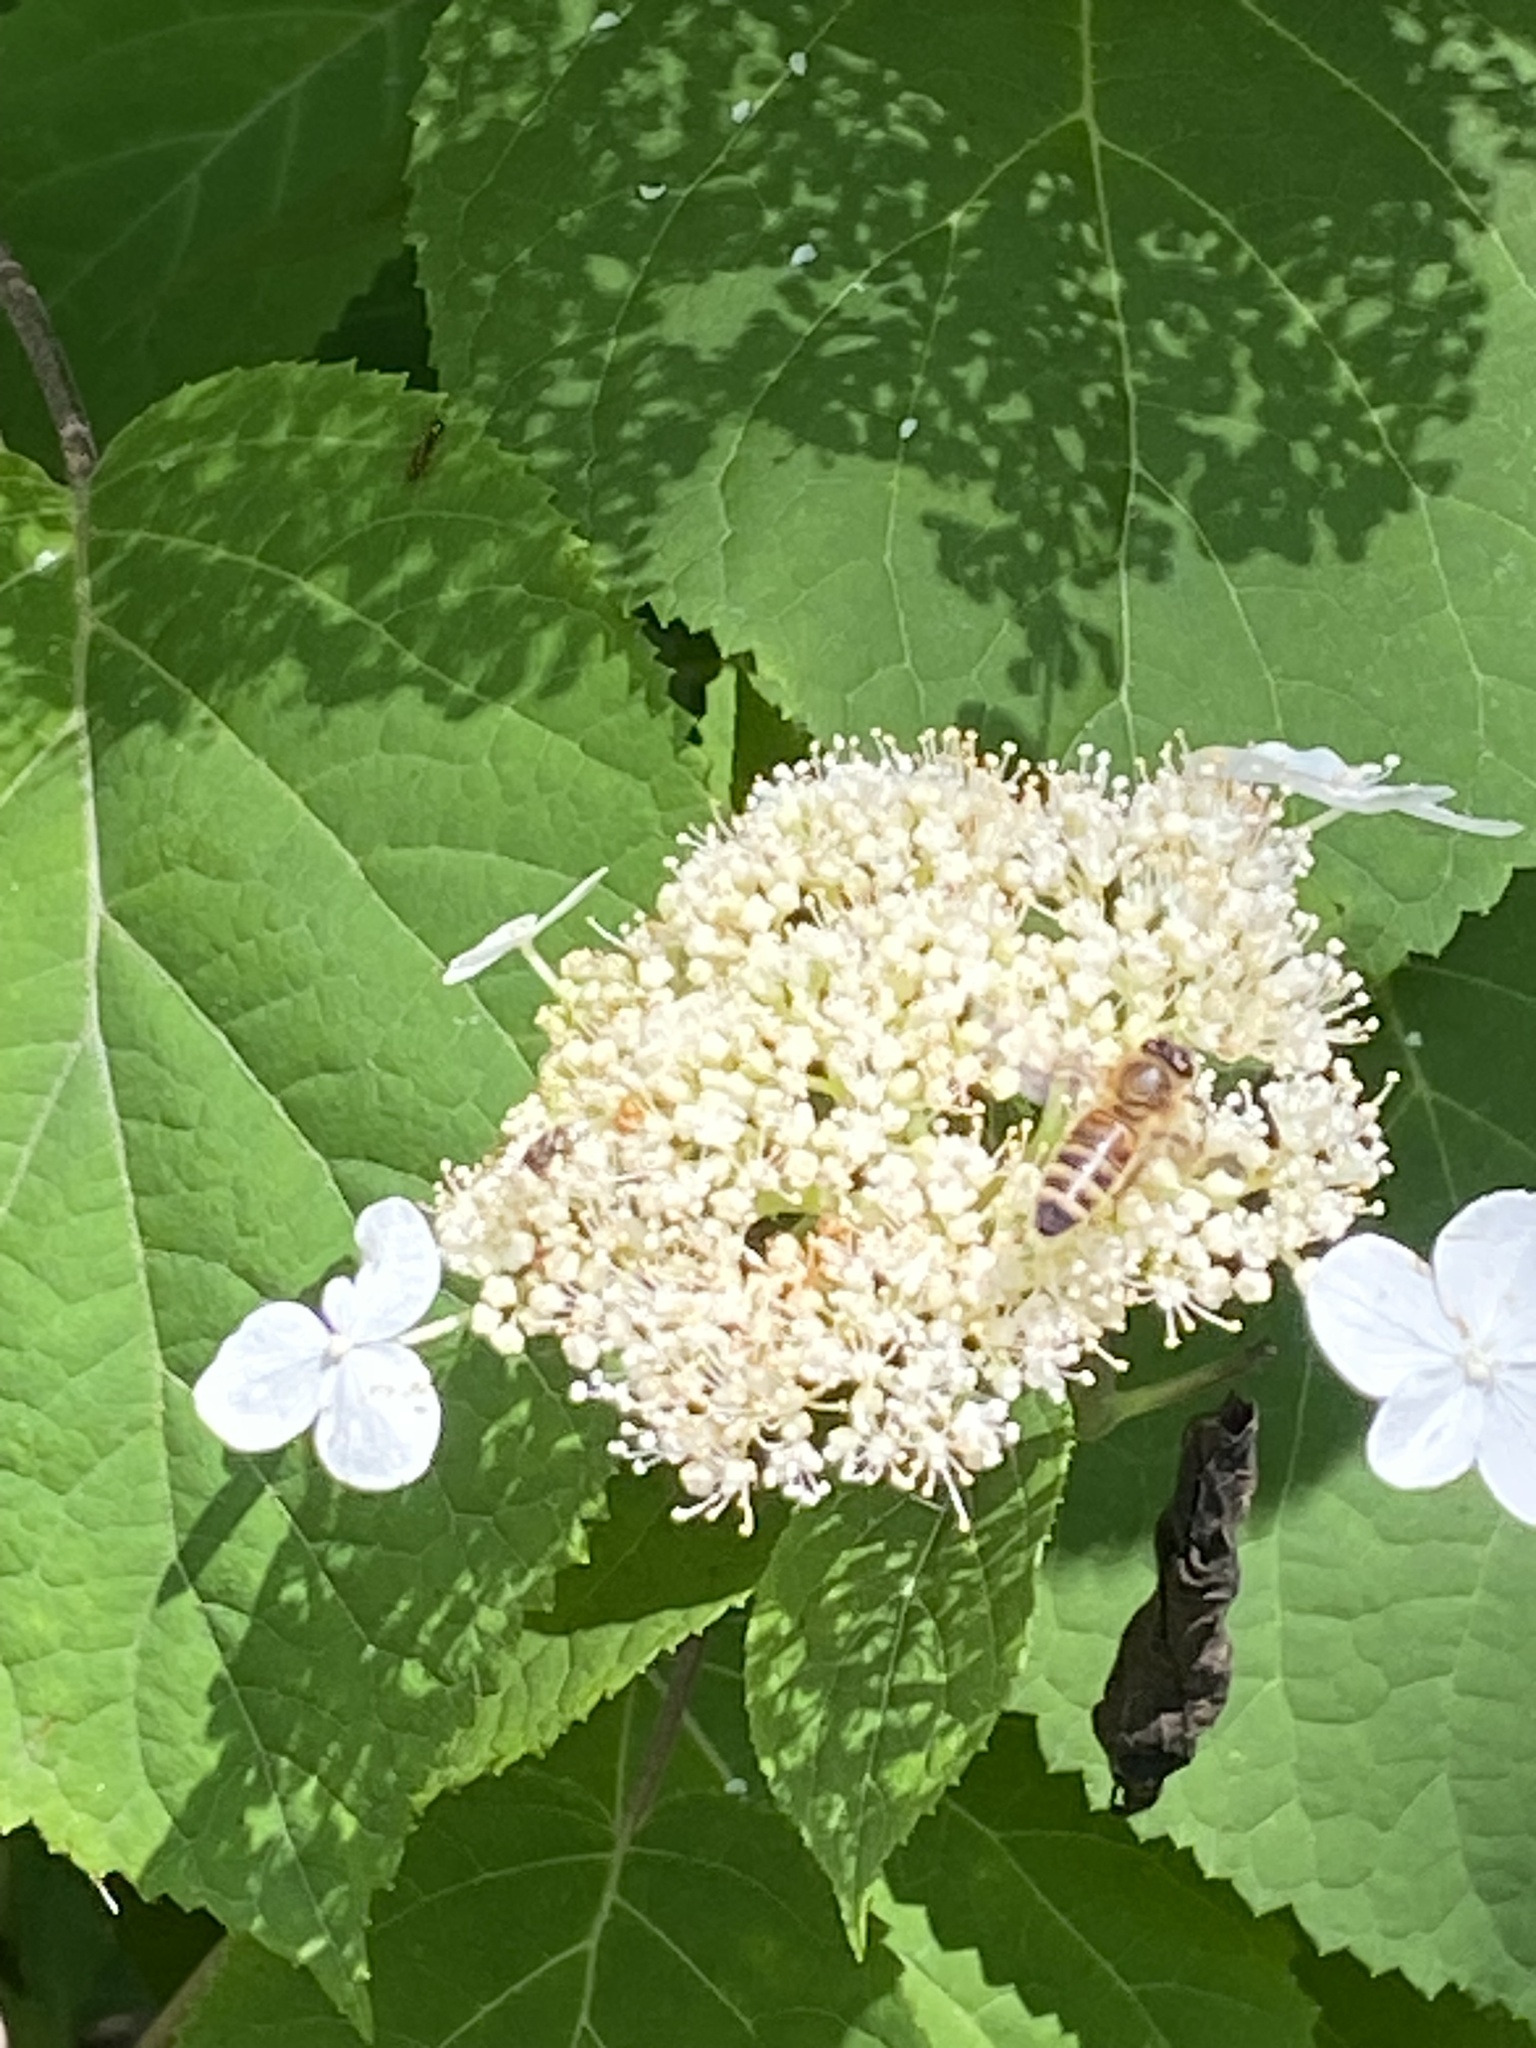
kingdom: Plantae
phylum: Tracheophyta
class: Magnoliopsida
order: Cornales
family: Hydrangeaceae
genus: Hydrangea
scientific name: Hydrangea arborescens
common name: Sevenbark
